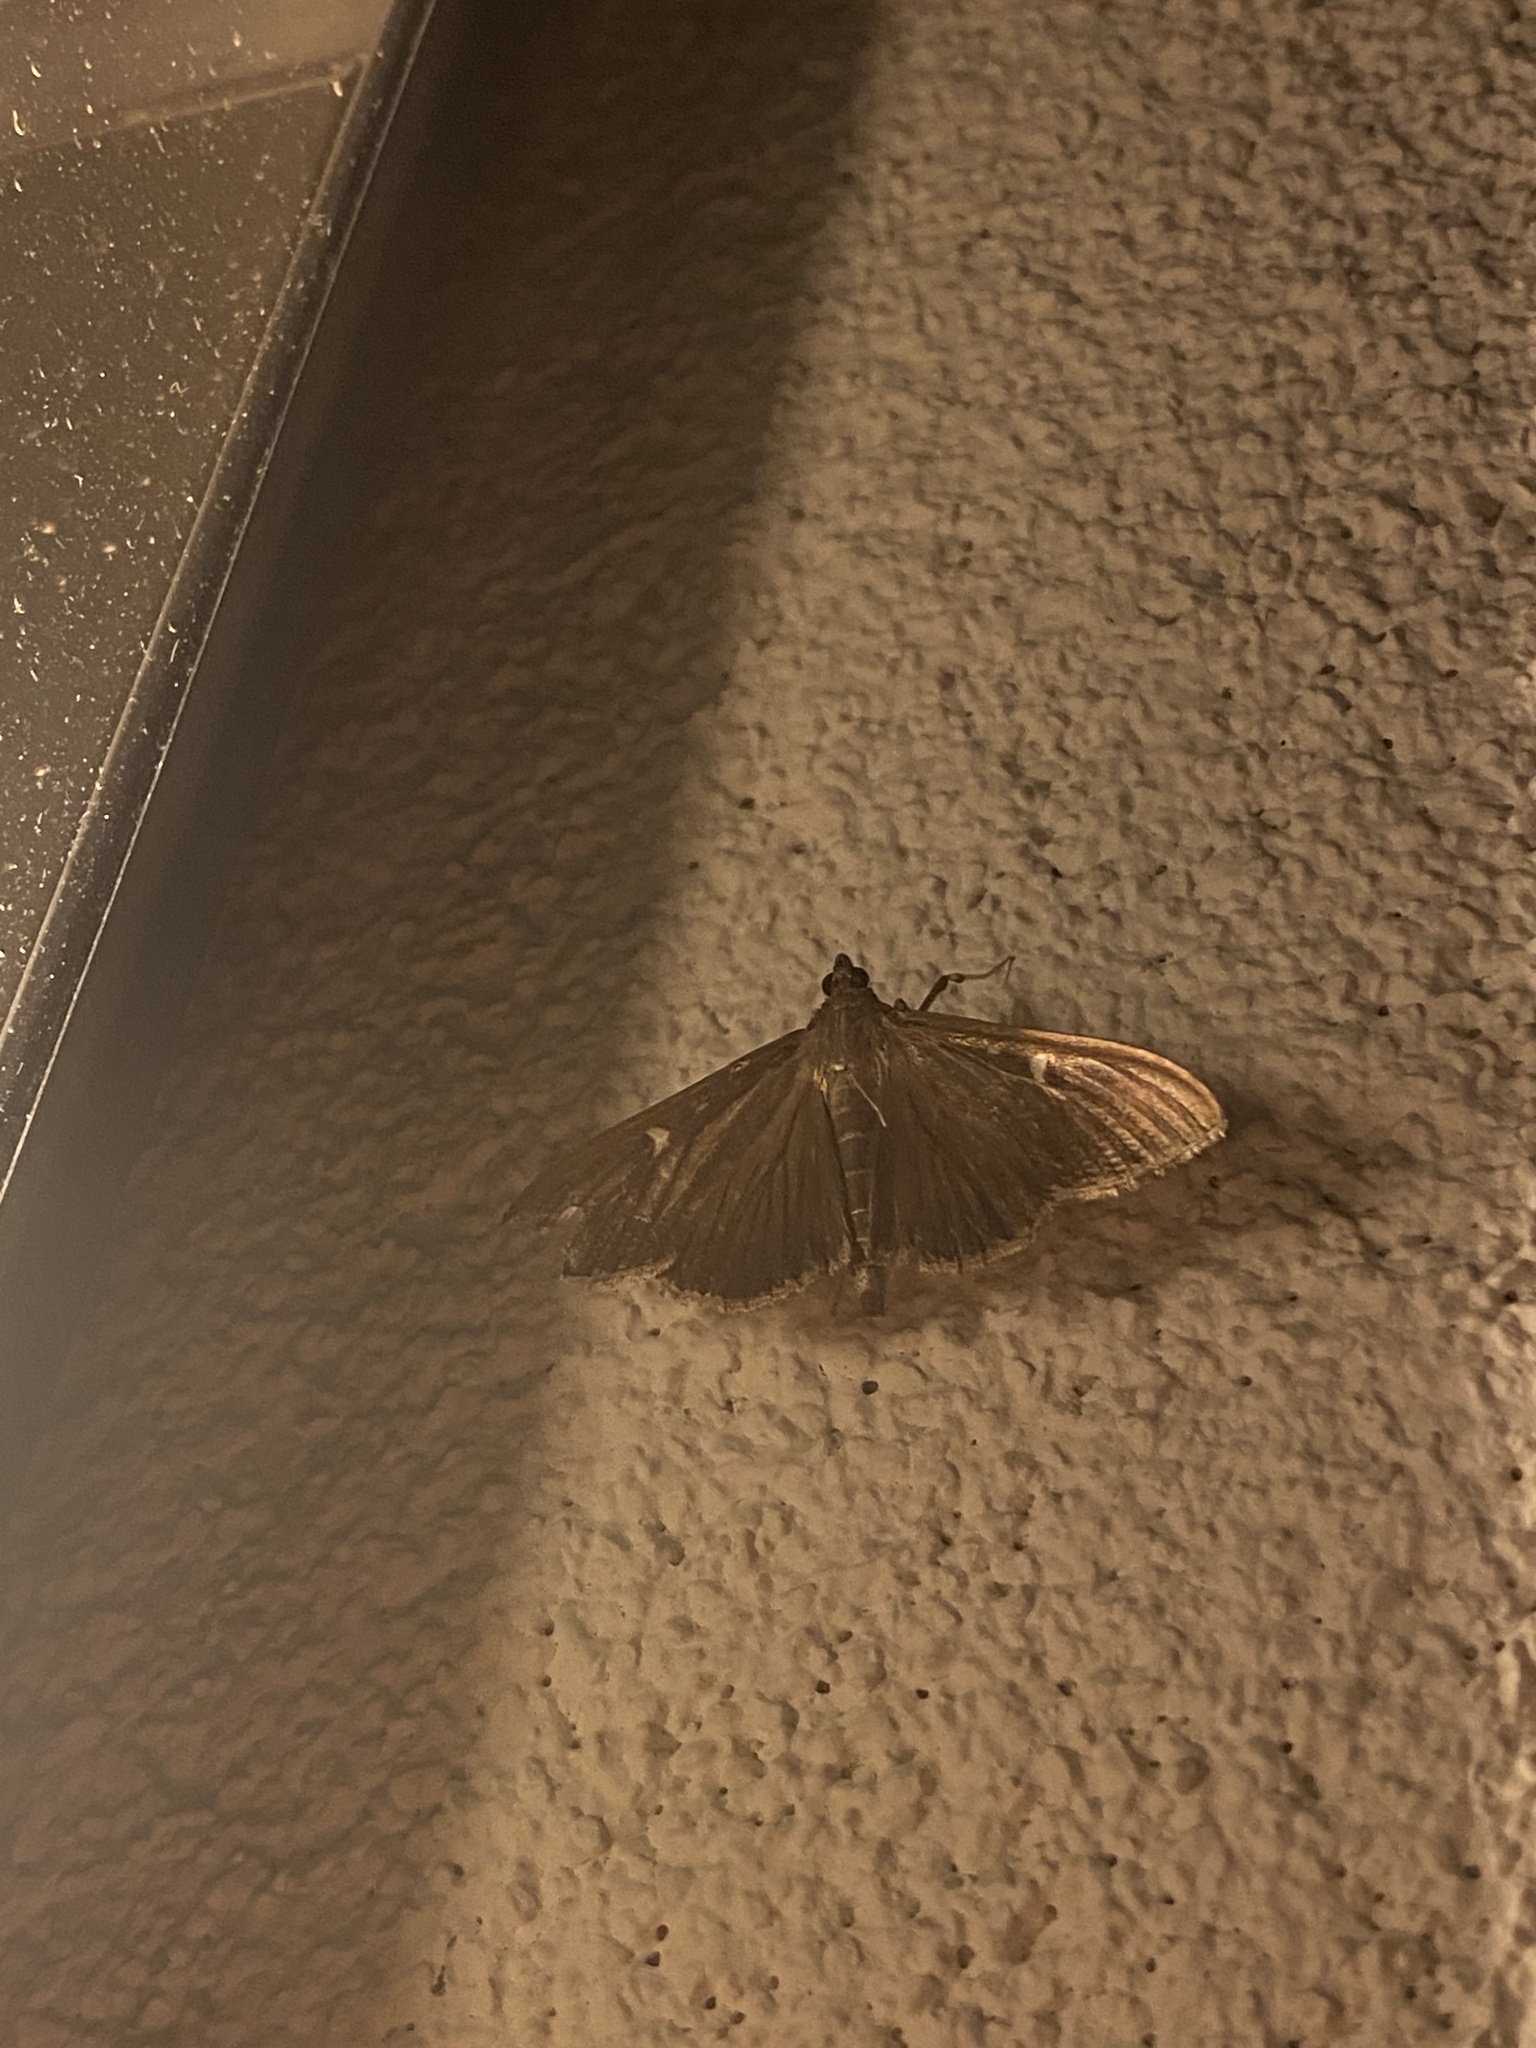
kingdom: Animalia
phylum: Arthropoda
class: Insecta
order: Lepidoptera
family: Crambidae
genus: Cydalima
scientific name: Cydalima perspectalis
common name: Box tree moth
